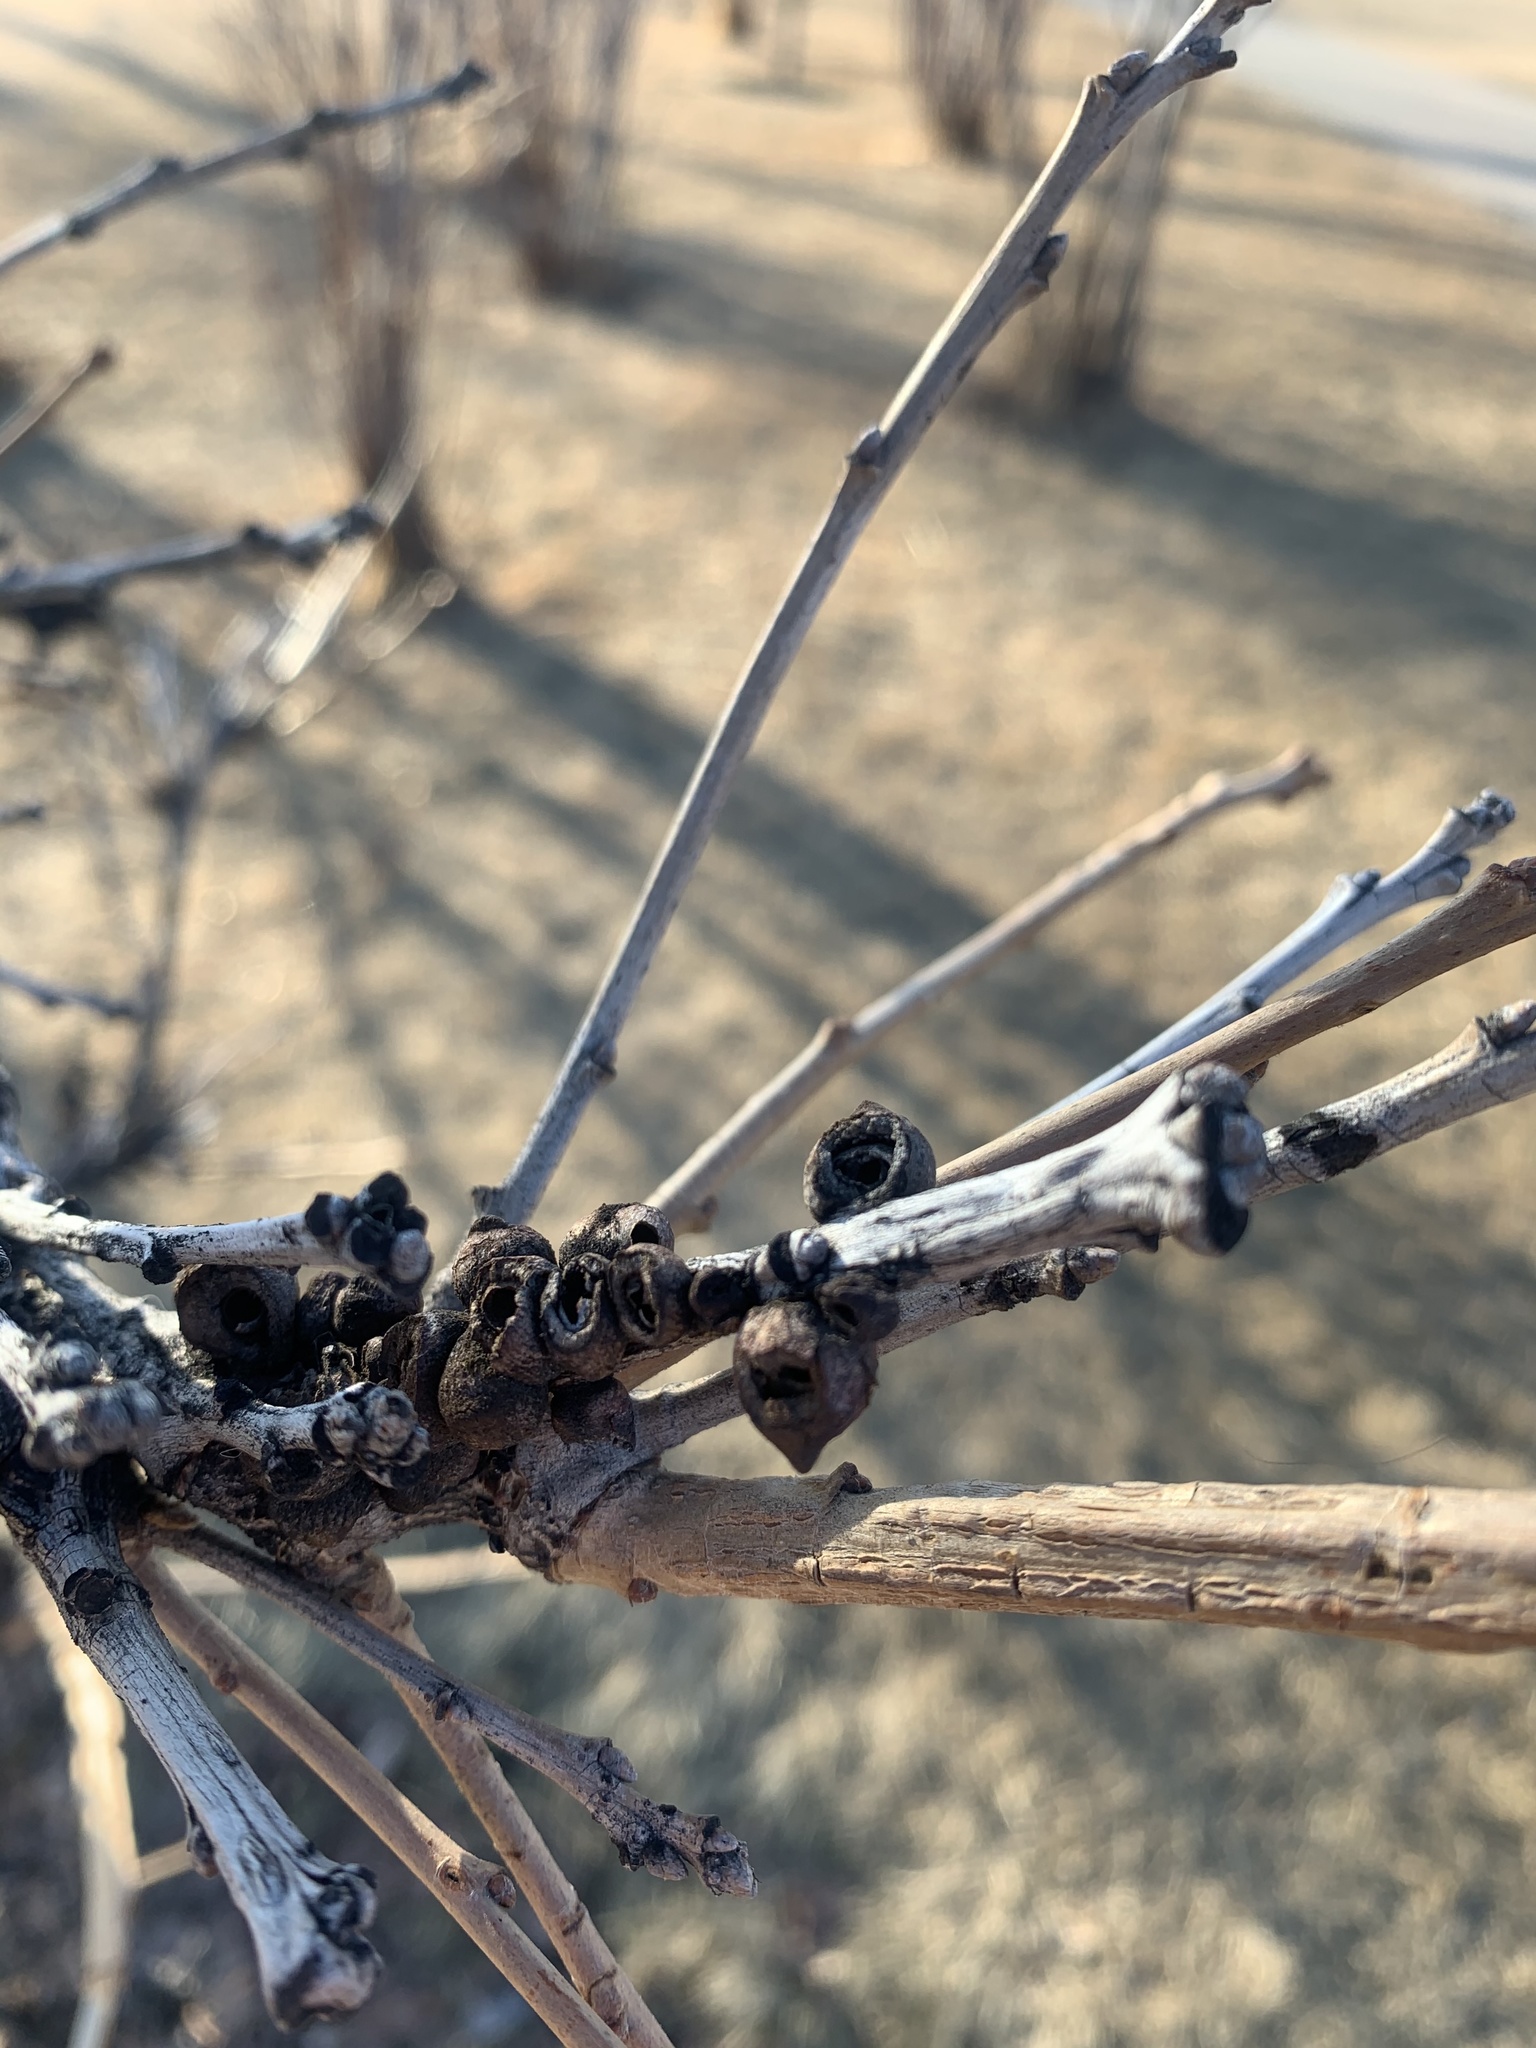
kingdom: Animalia
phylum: Arthropoda
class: Insecta
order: Hymenoptera
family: Cynipidae
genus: Disholcaspis
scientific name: Disholcaspis
